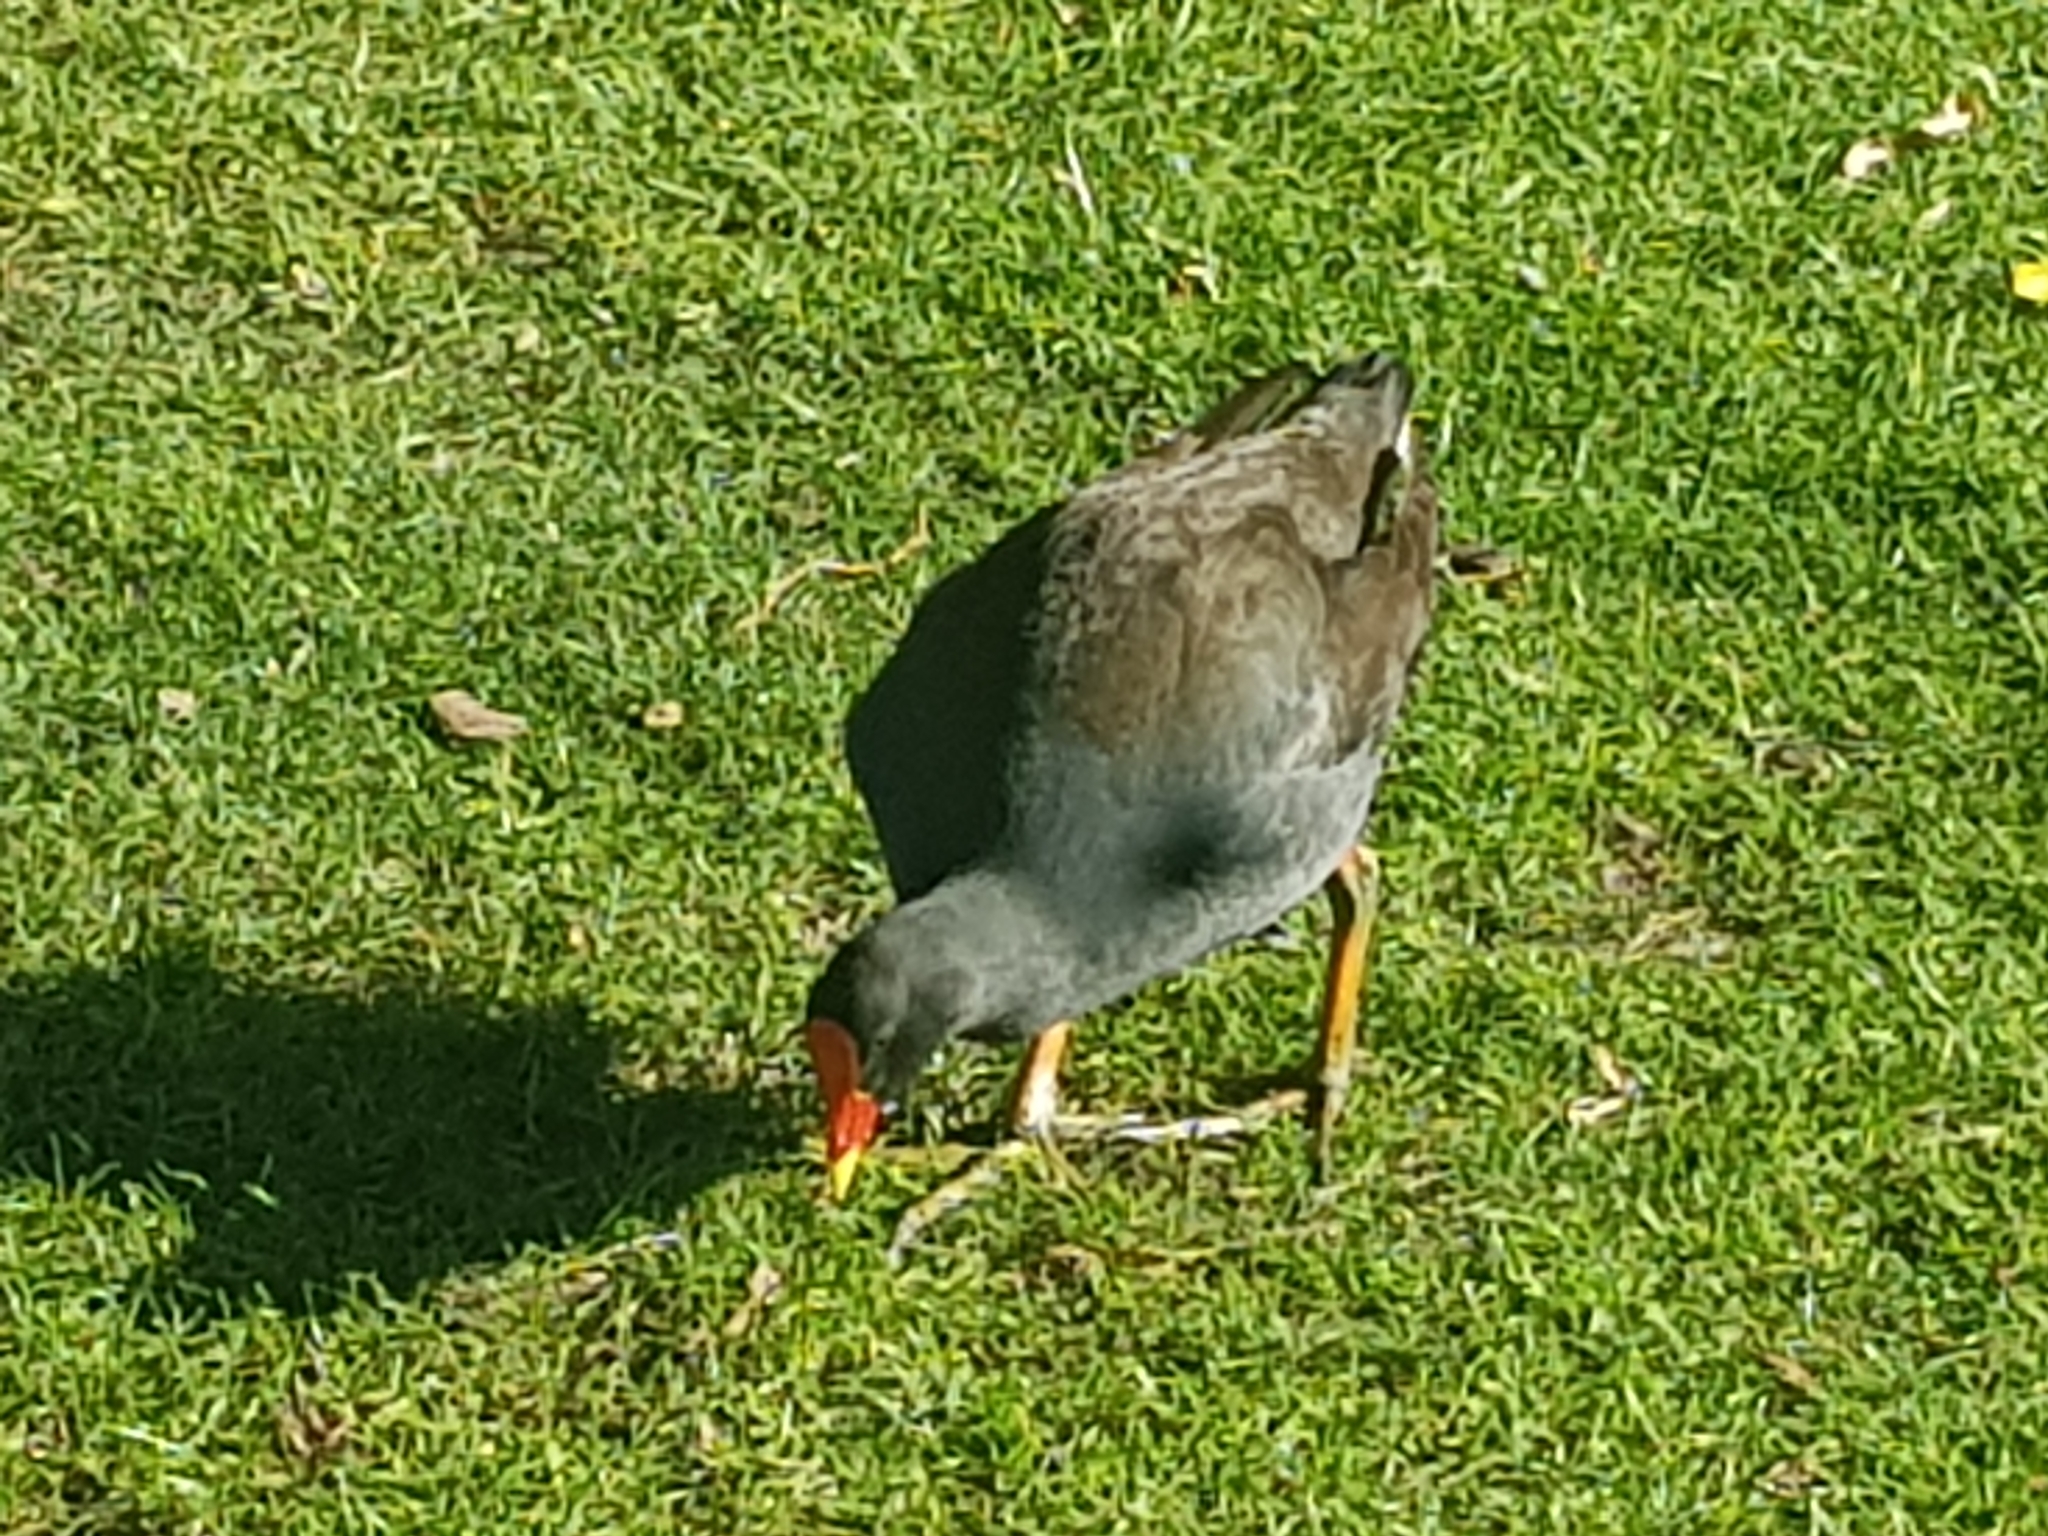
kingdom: Animalia
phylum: Chordata
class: Aves
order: Gruiformes
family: Rallidae
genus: Gallinula
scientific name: Gallinula tenebrosa
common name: Dusky moorhen
